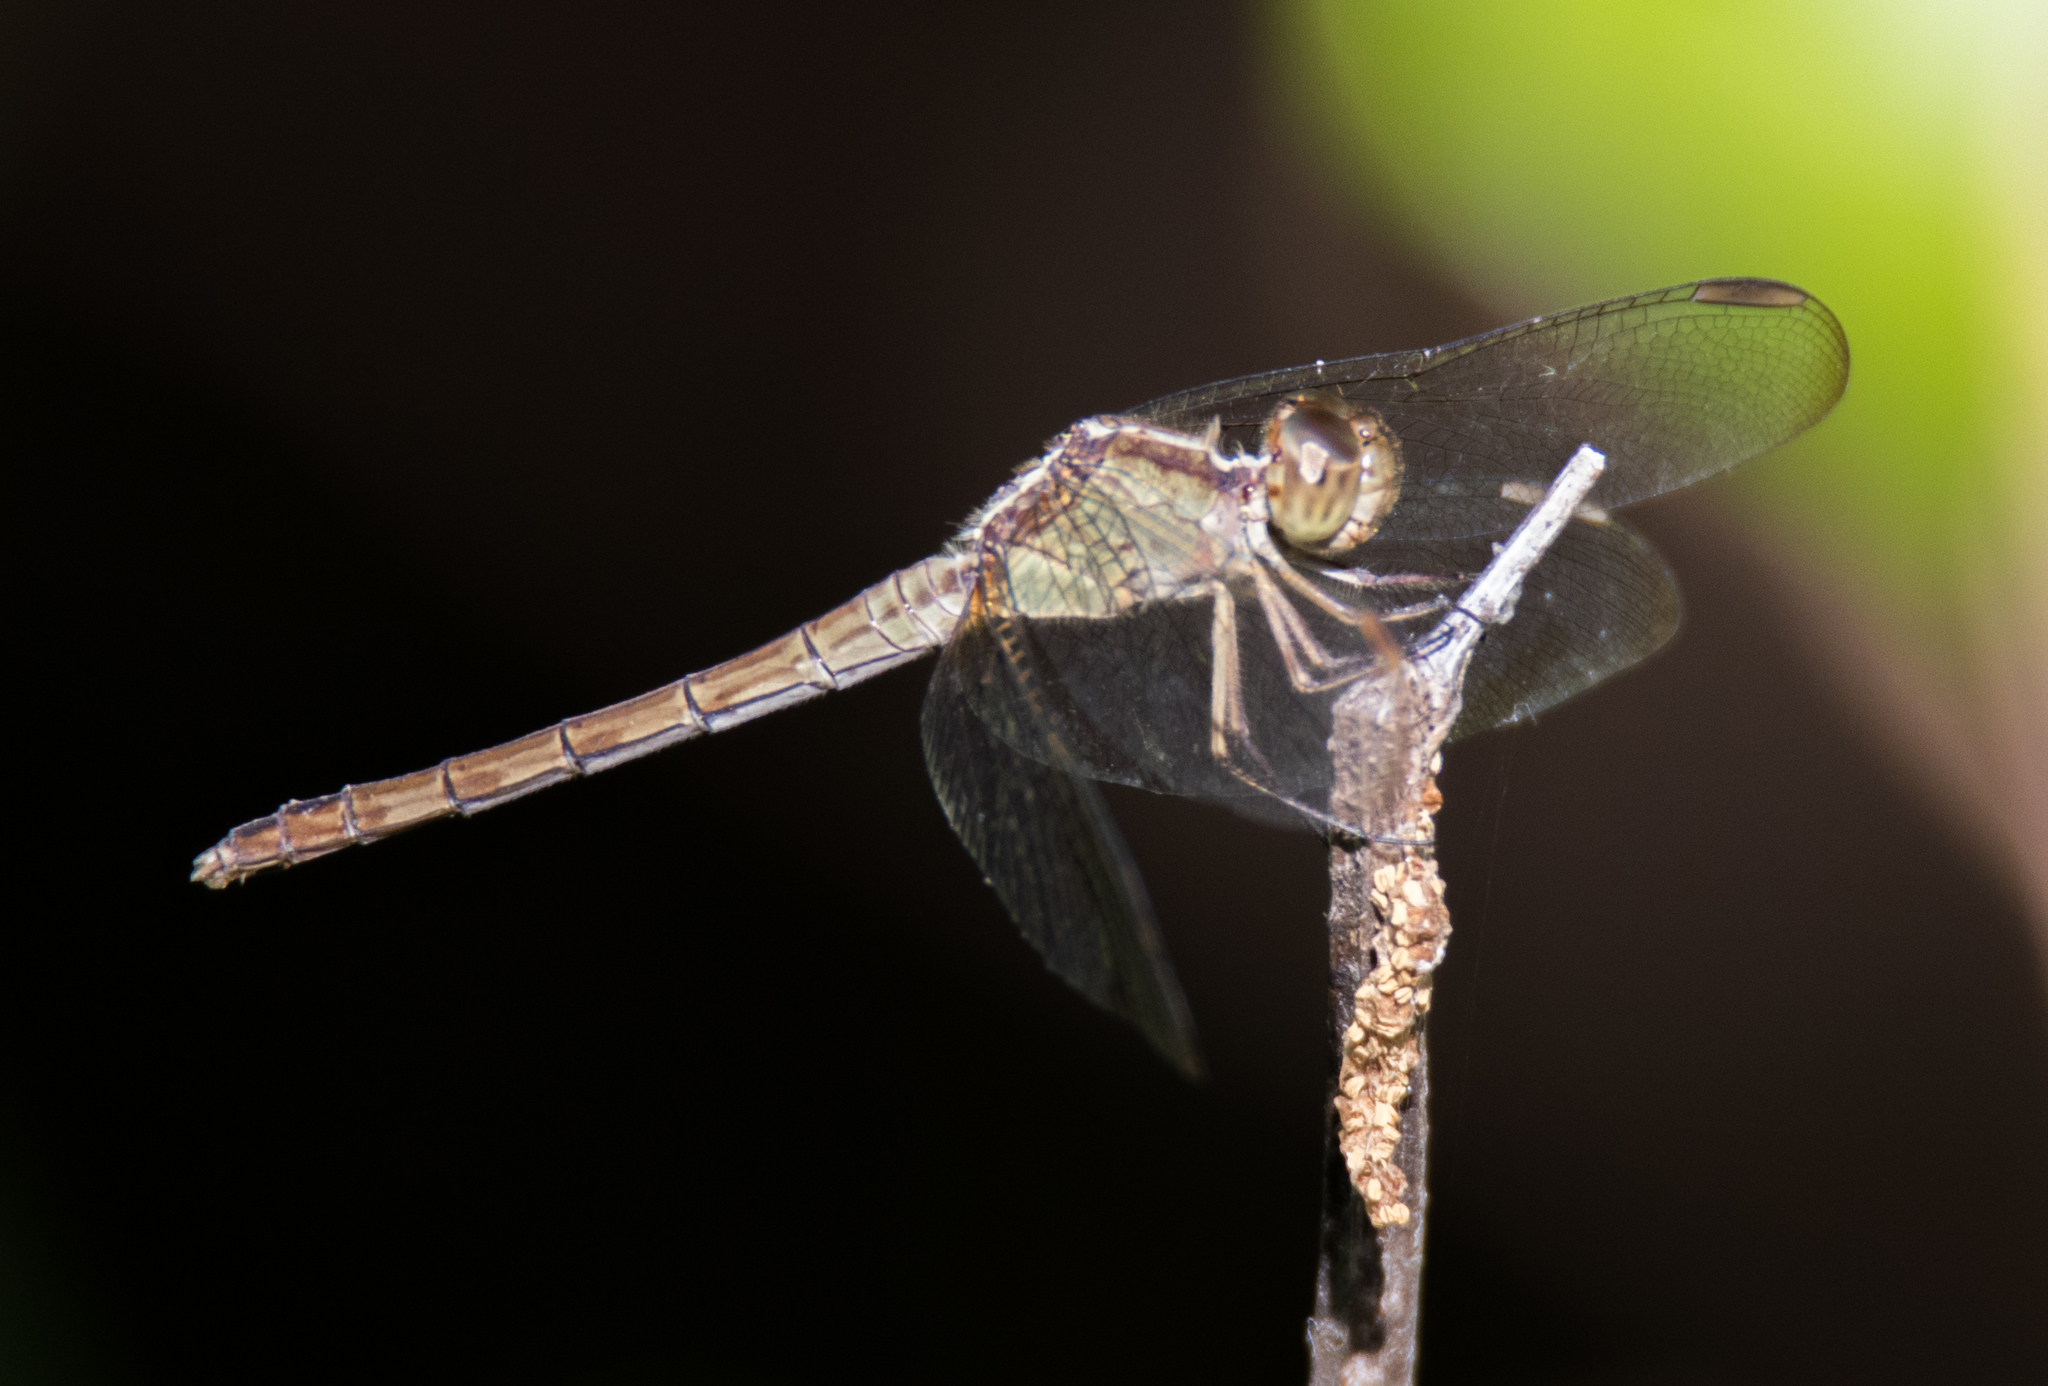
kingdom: Animalia
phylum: Arthropoda
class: Insecta
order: Odonata
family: Libellulidae
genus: Erythrodiplax
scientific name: Erythrodiplax umbrata
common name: Band-winged dragonlet
